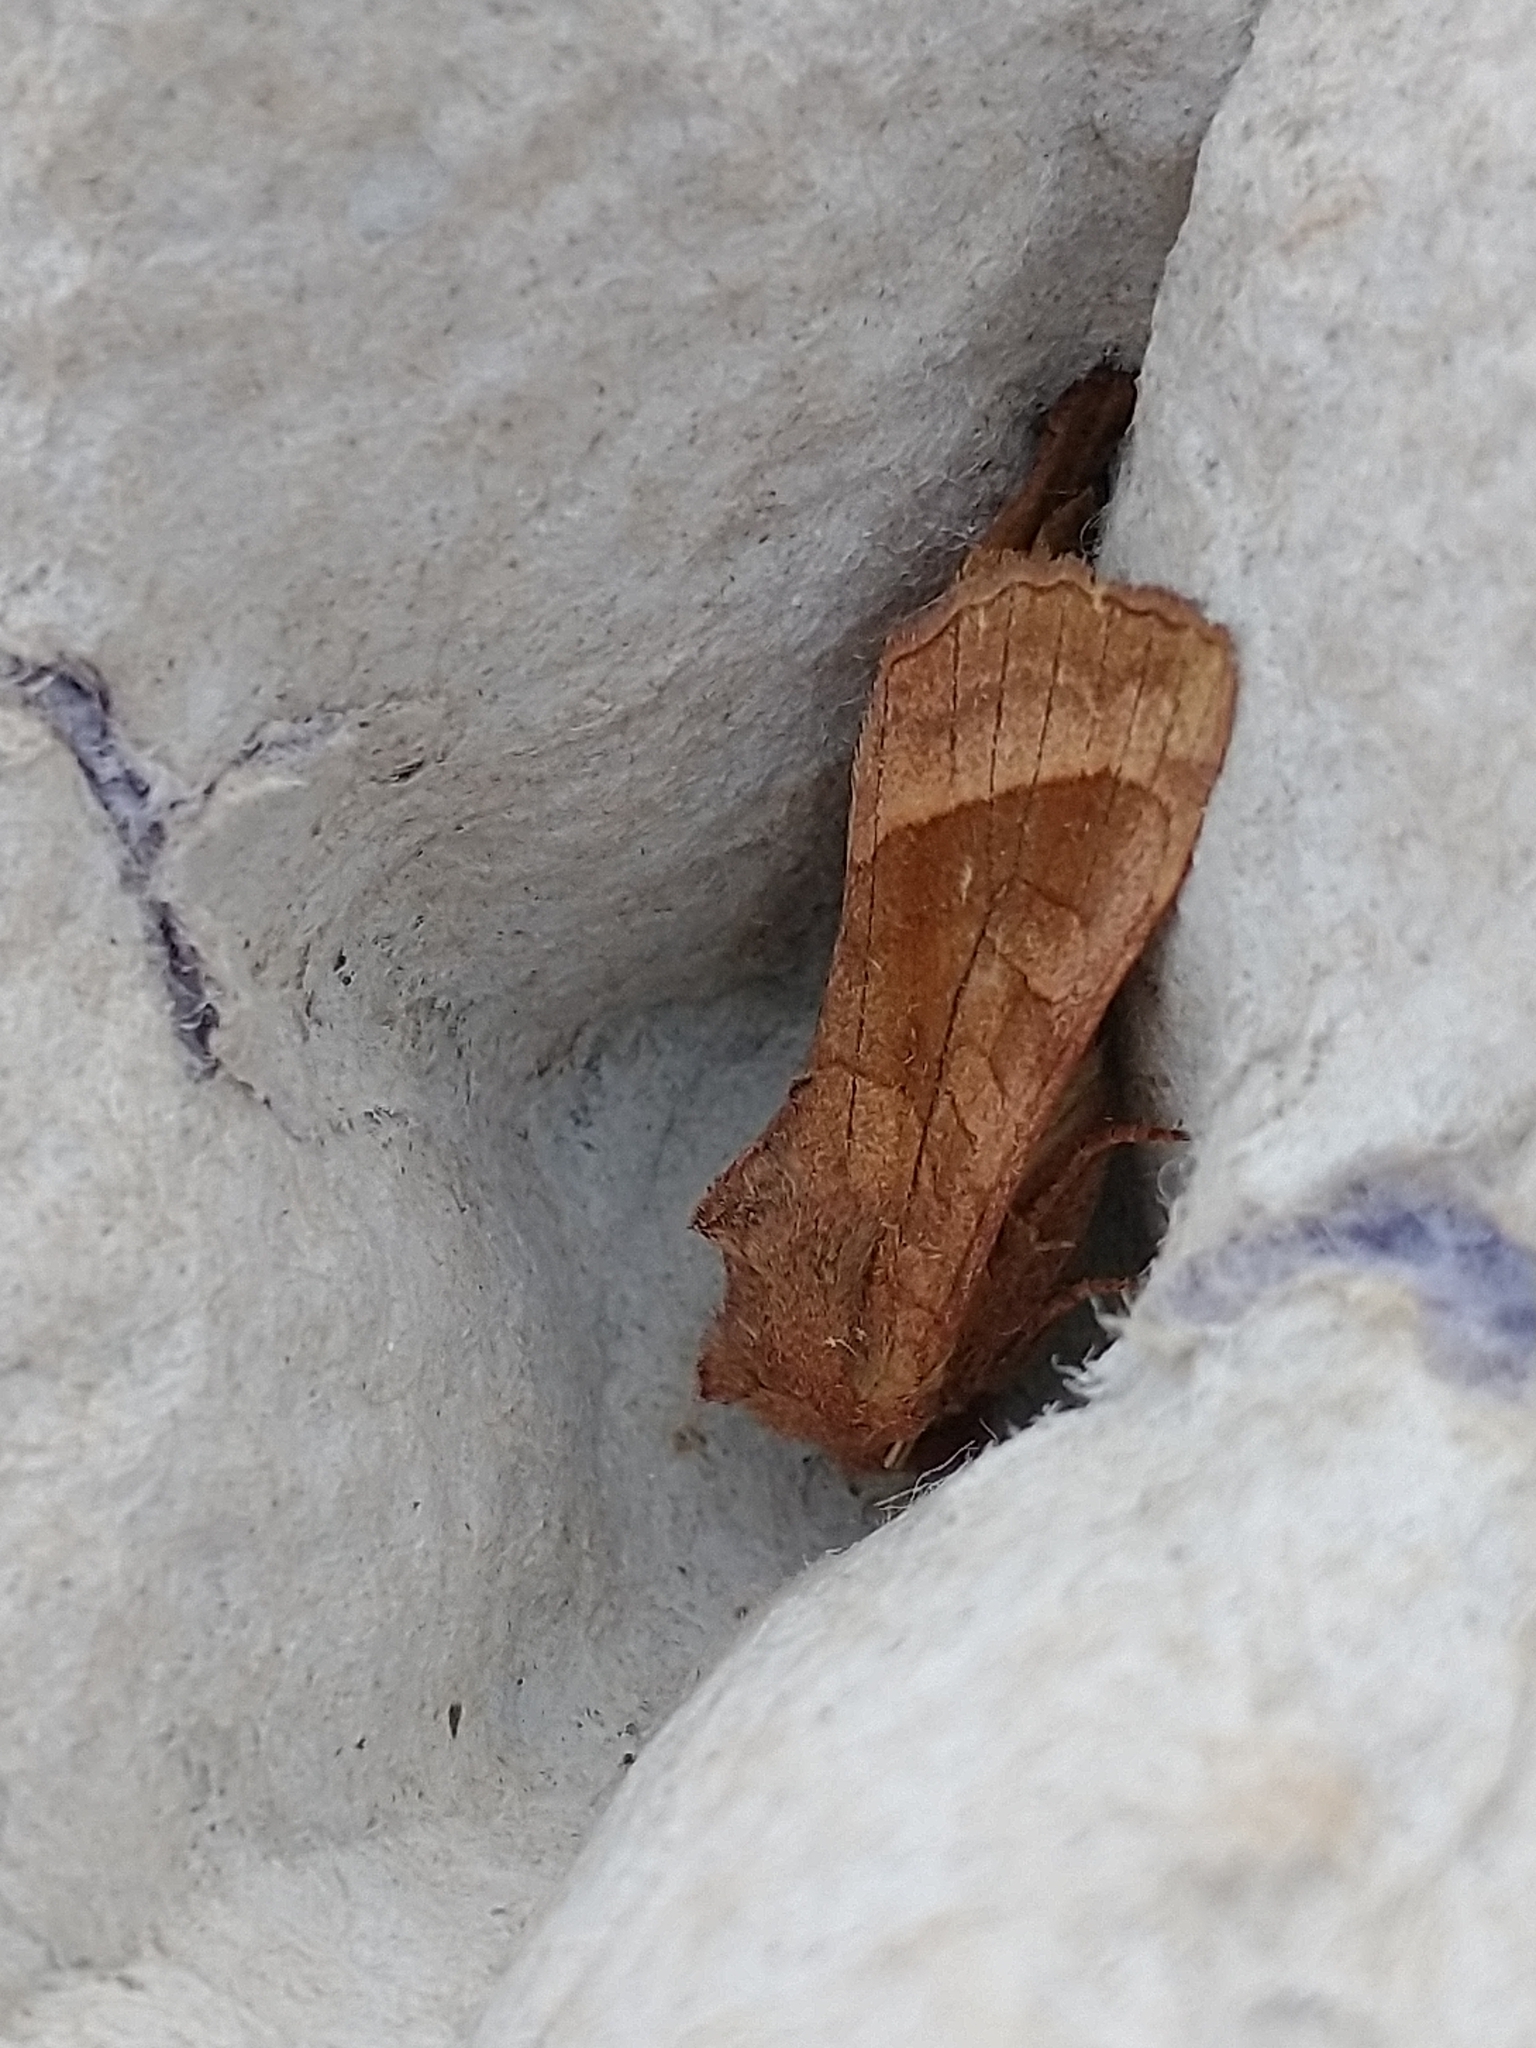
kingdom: Animalia
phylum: Arthropoda
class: Insecta
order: Lepidoptera
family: Noctuidae
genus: Hydraecia
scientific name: Hydraecia micacea
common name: Rosy rustic
